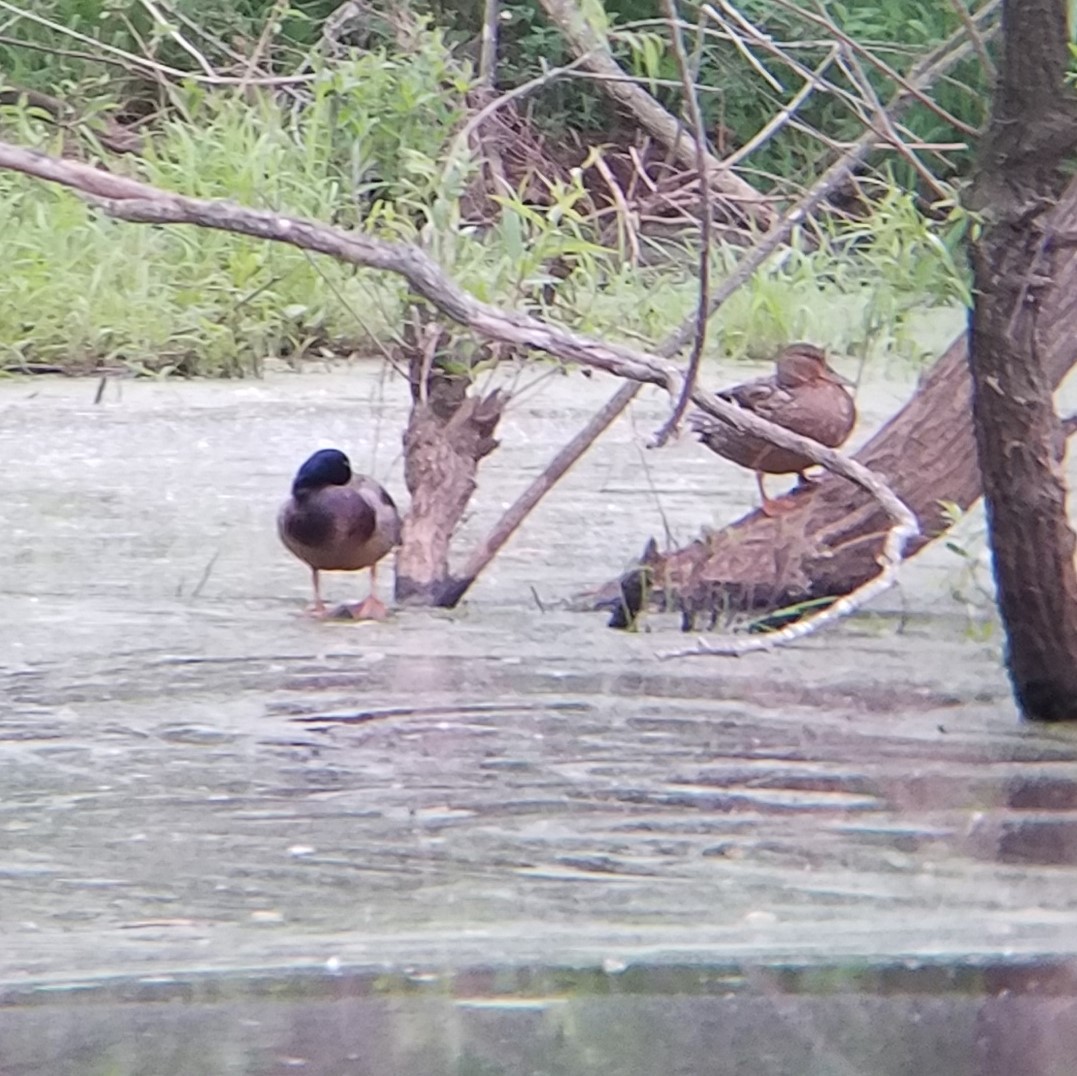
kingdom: Animalia
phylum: Chordata
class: Aves
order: Anseriformes
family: Anatidae
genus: Anas
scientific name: Anas platyrhynchos
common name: Mallard
